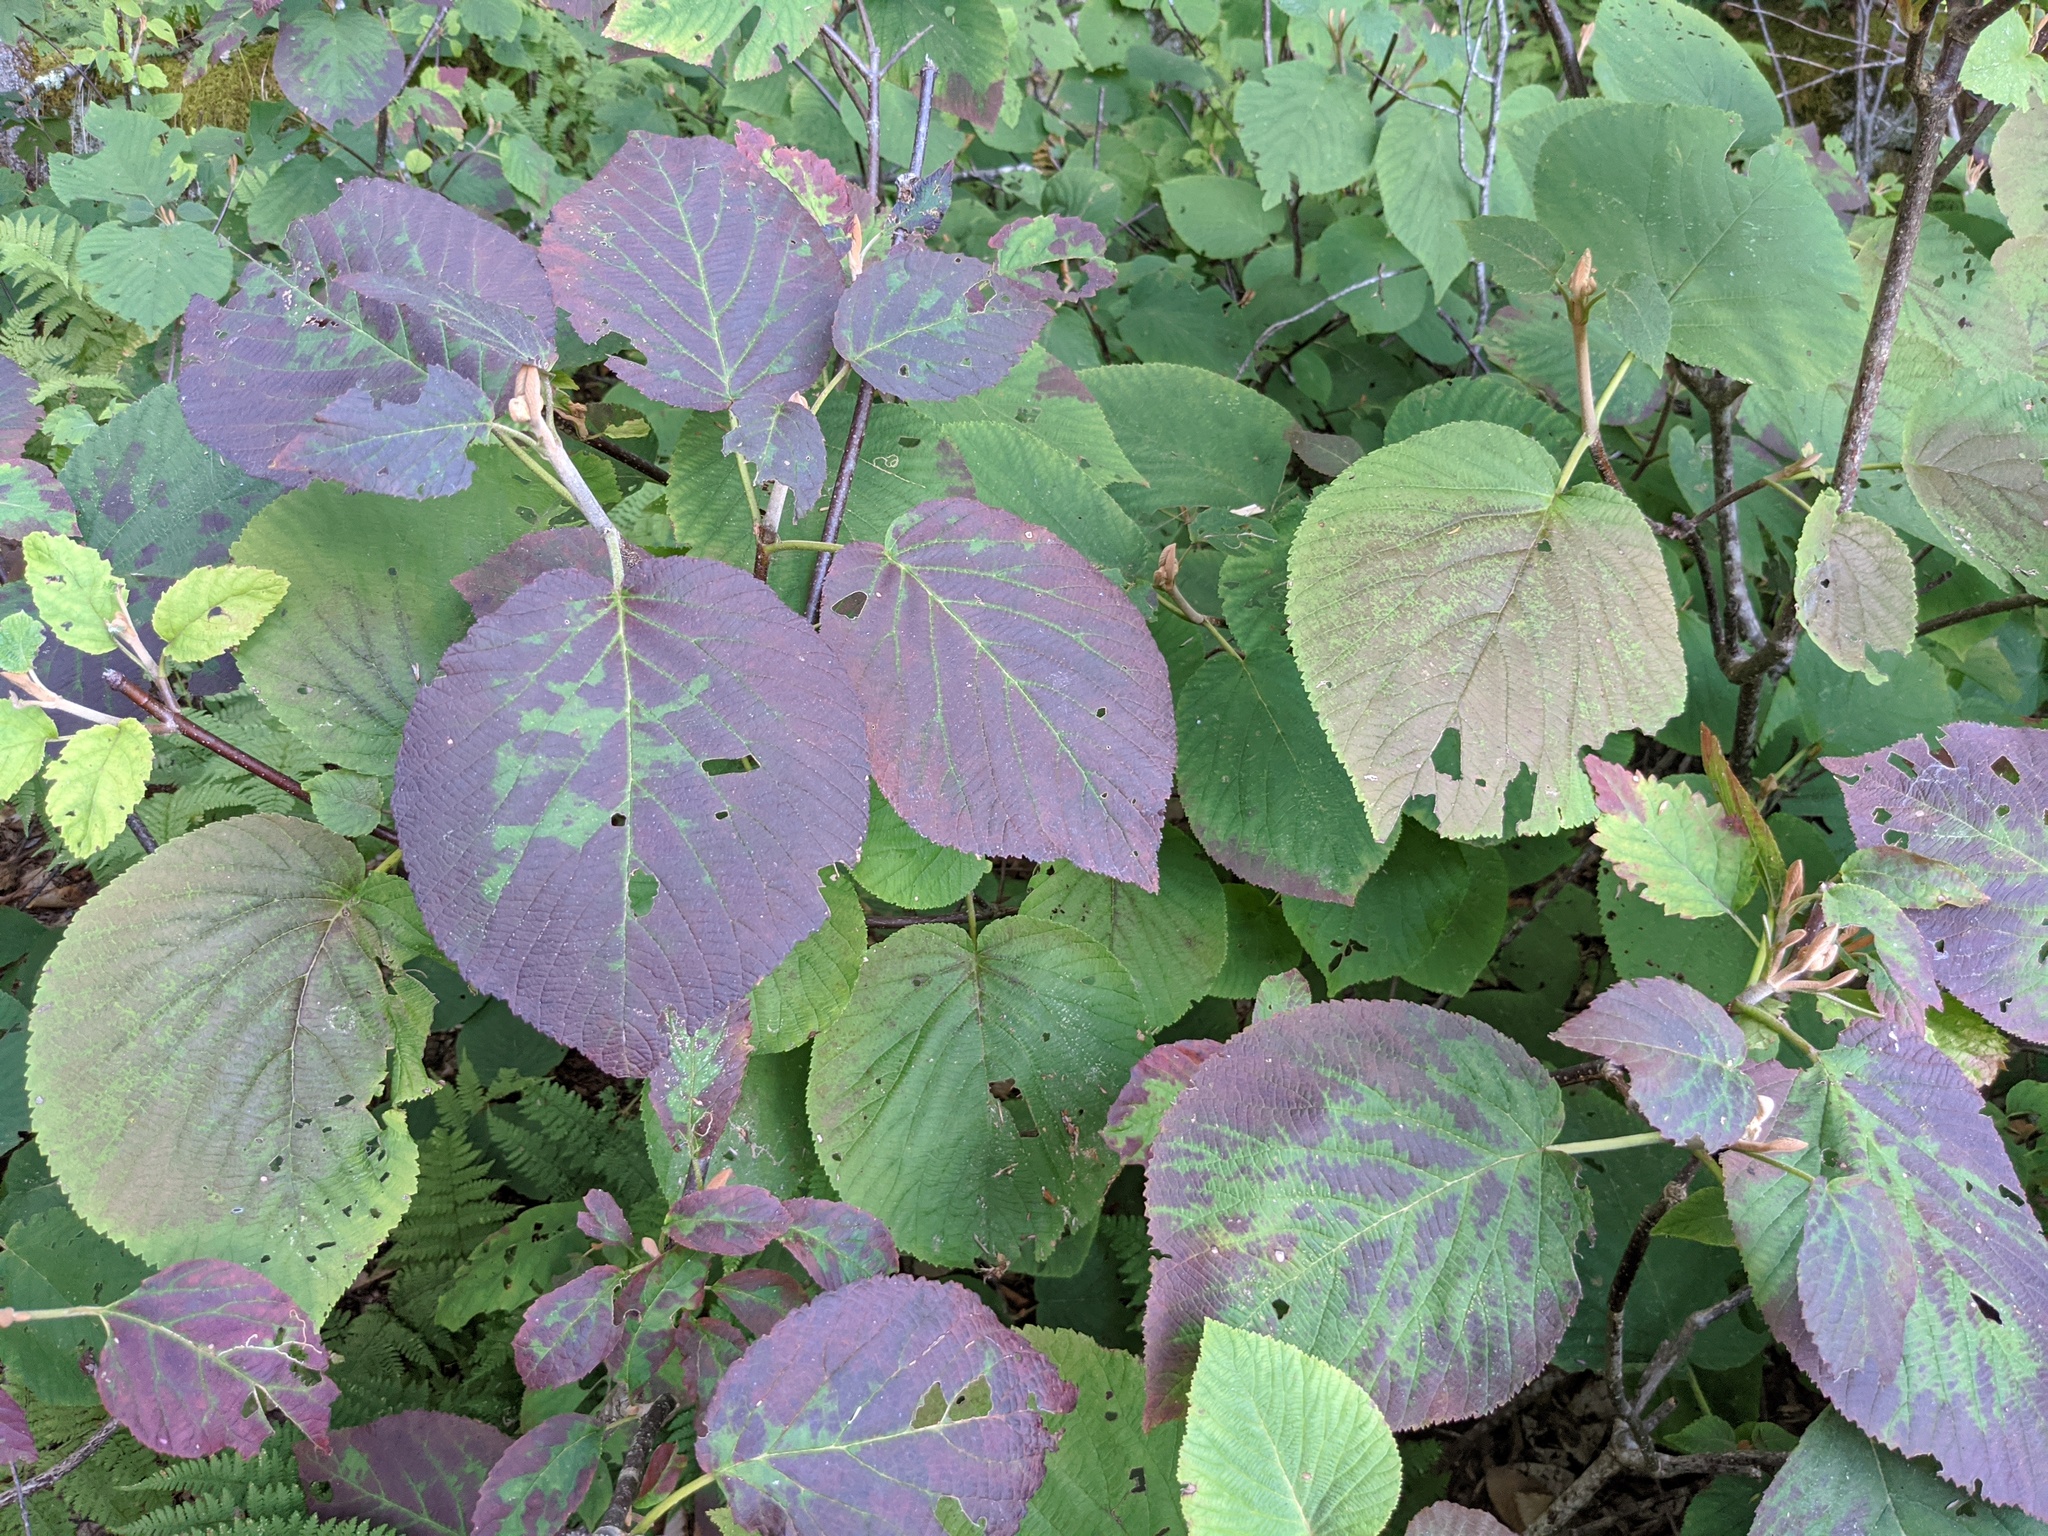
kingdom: Plantae
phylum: Tracheophyta
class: Magnoliopsida
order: Dipsacales
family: Viburnaceae
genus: Viburnum
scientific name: Viburnum lantanoides
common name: Hobblebush
